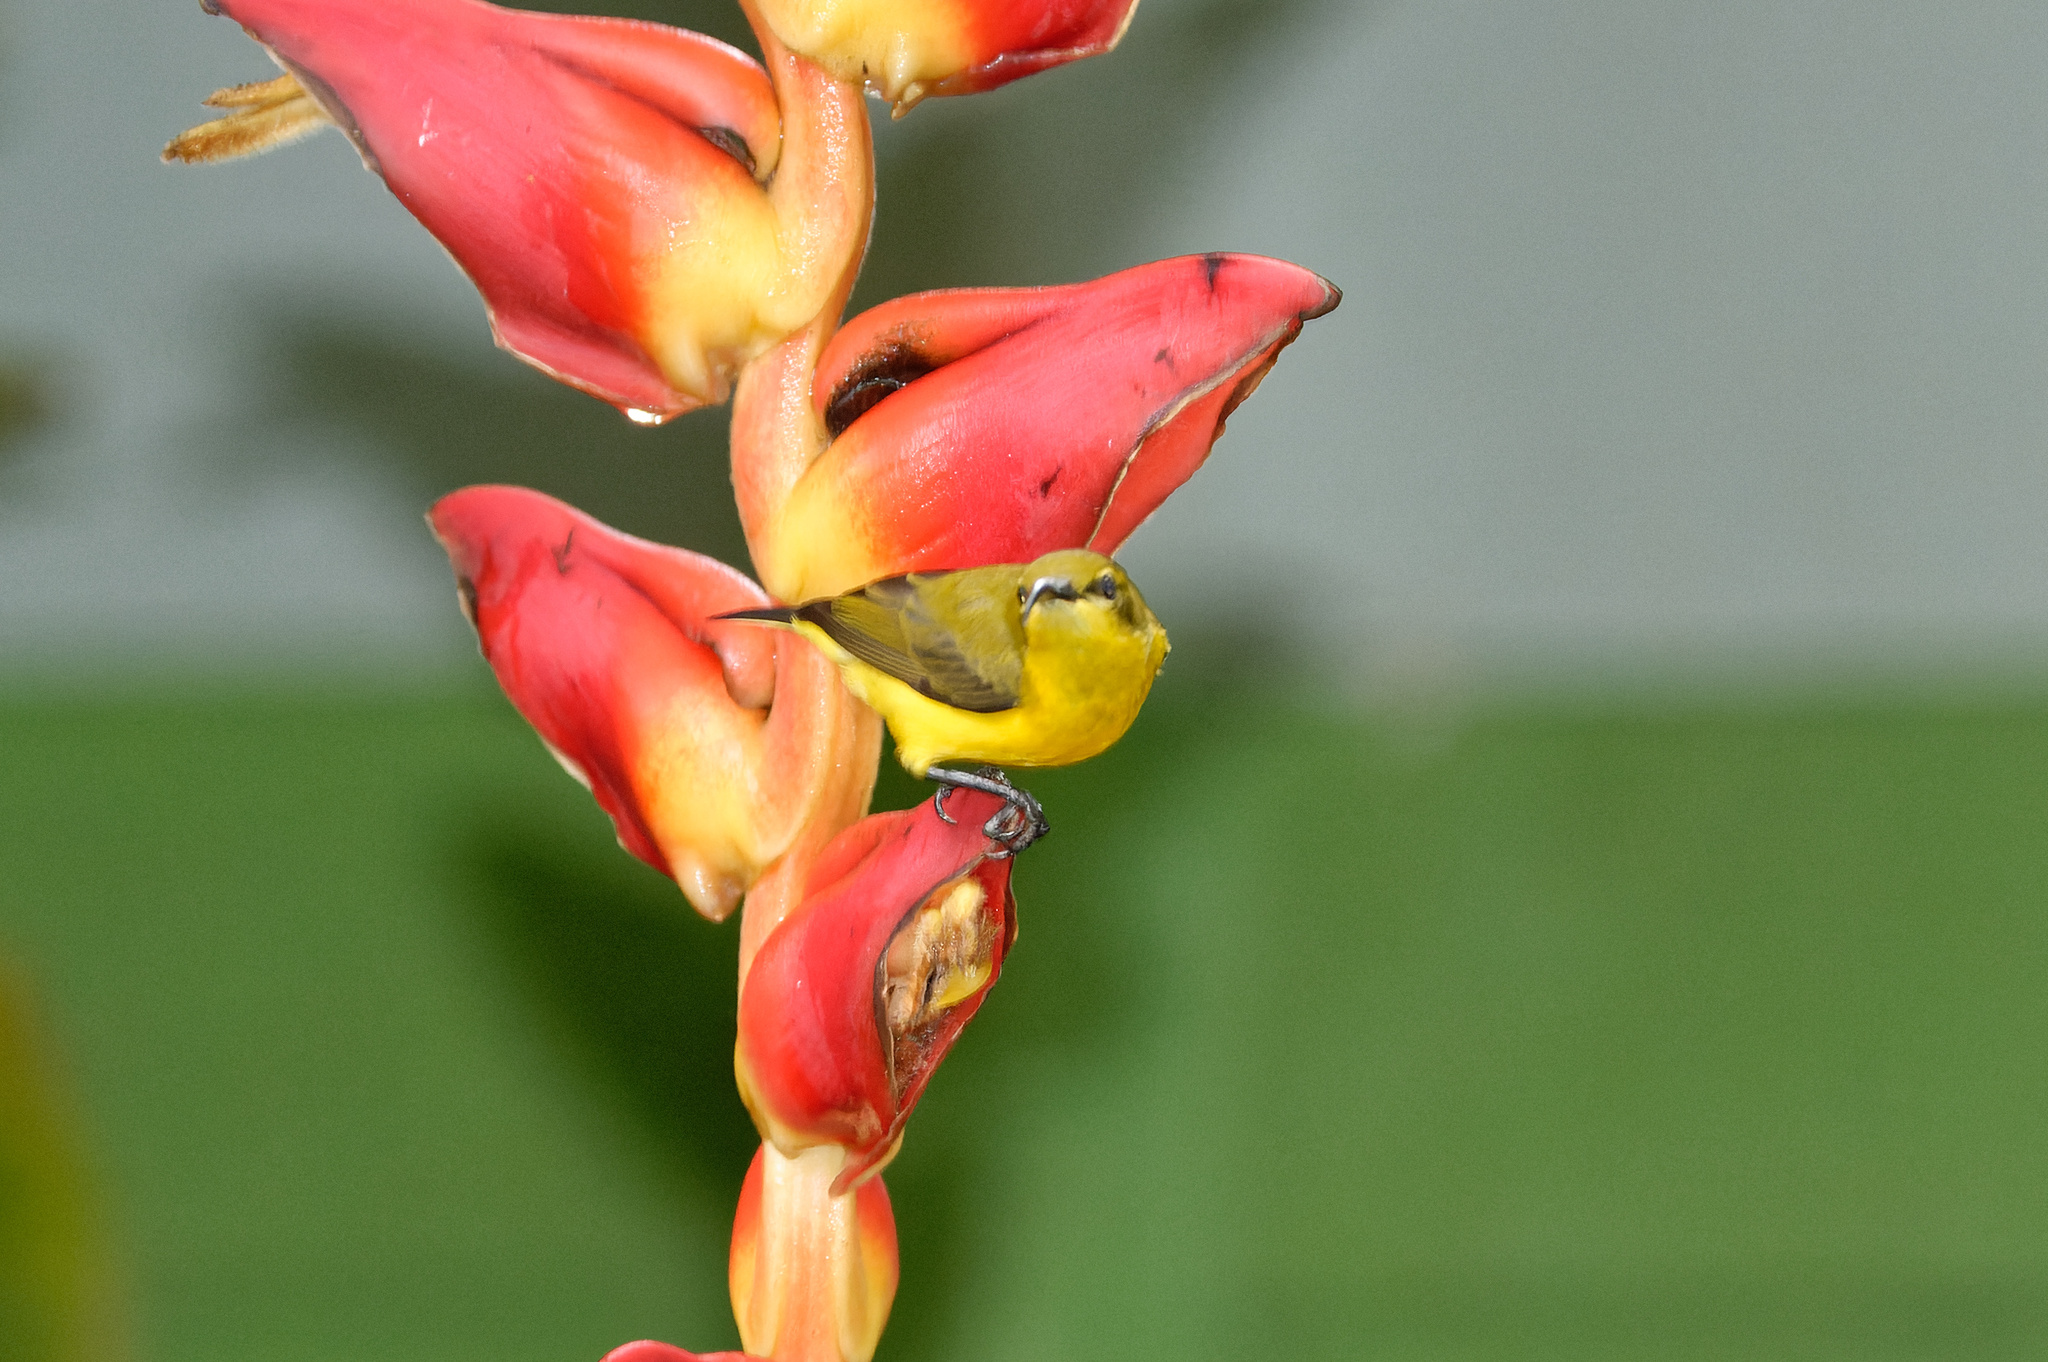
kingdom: Animalia
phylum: Chordata
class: Aves
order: Passeriformes
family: Nectariniidae
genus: Cinnyris
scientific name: Cinnyris
